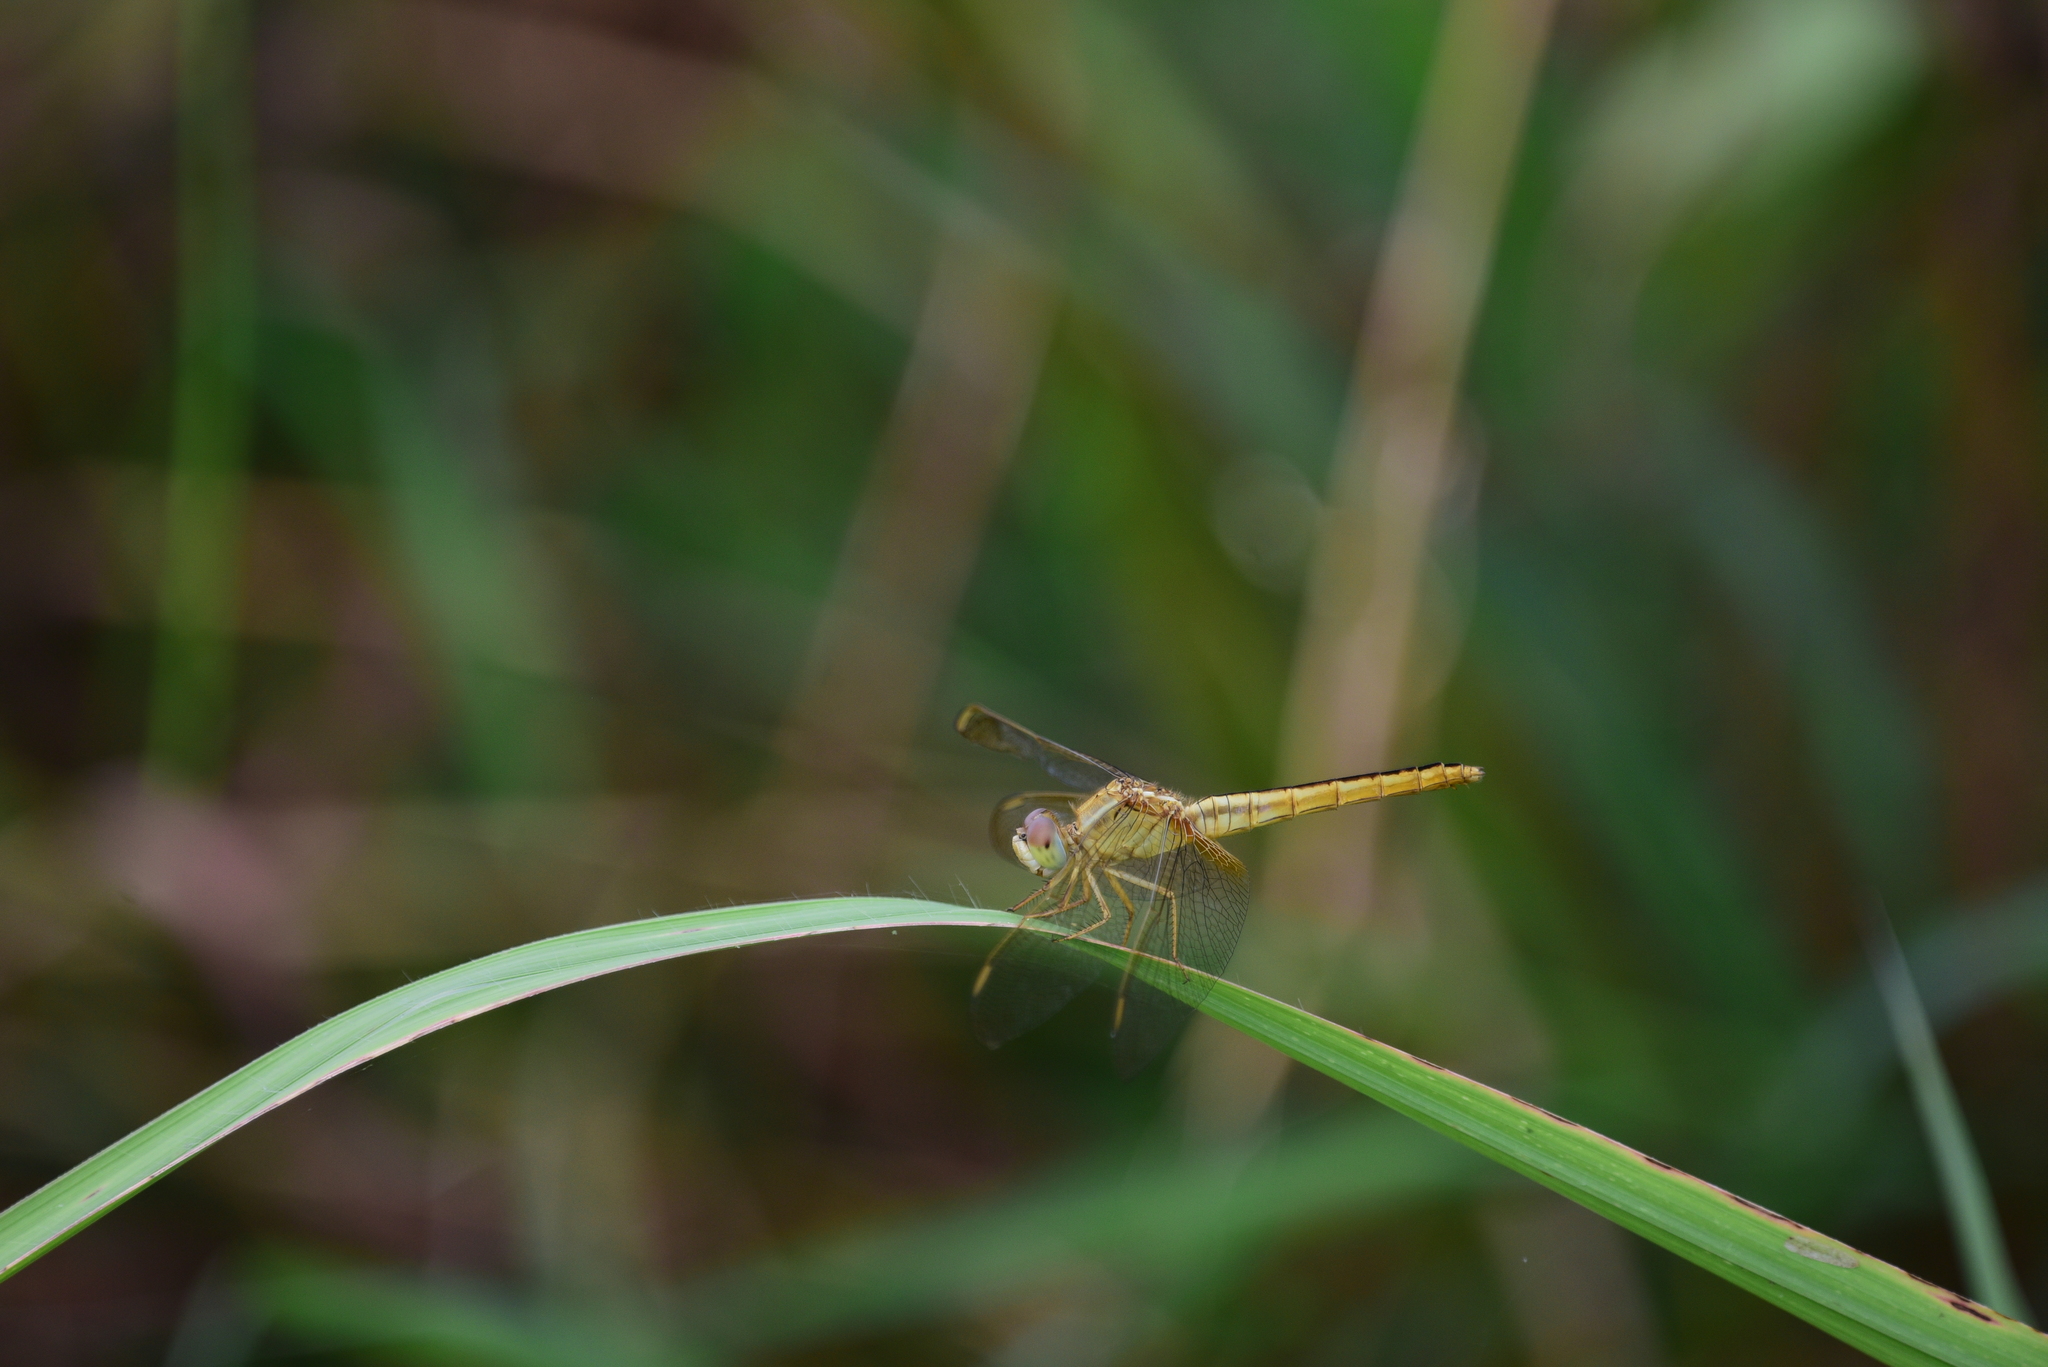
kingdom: Animalia
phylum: Arthropoda
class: Insecta
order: Odonata
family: Libellulidae
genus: Crocothemis
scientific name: Crocothemis servilia
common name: Scarlet skimmer
